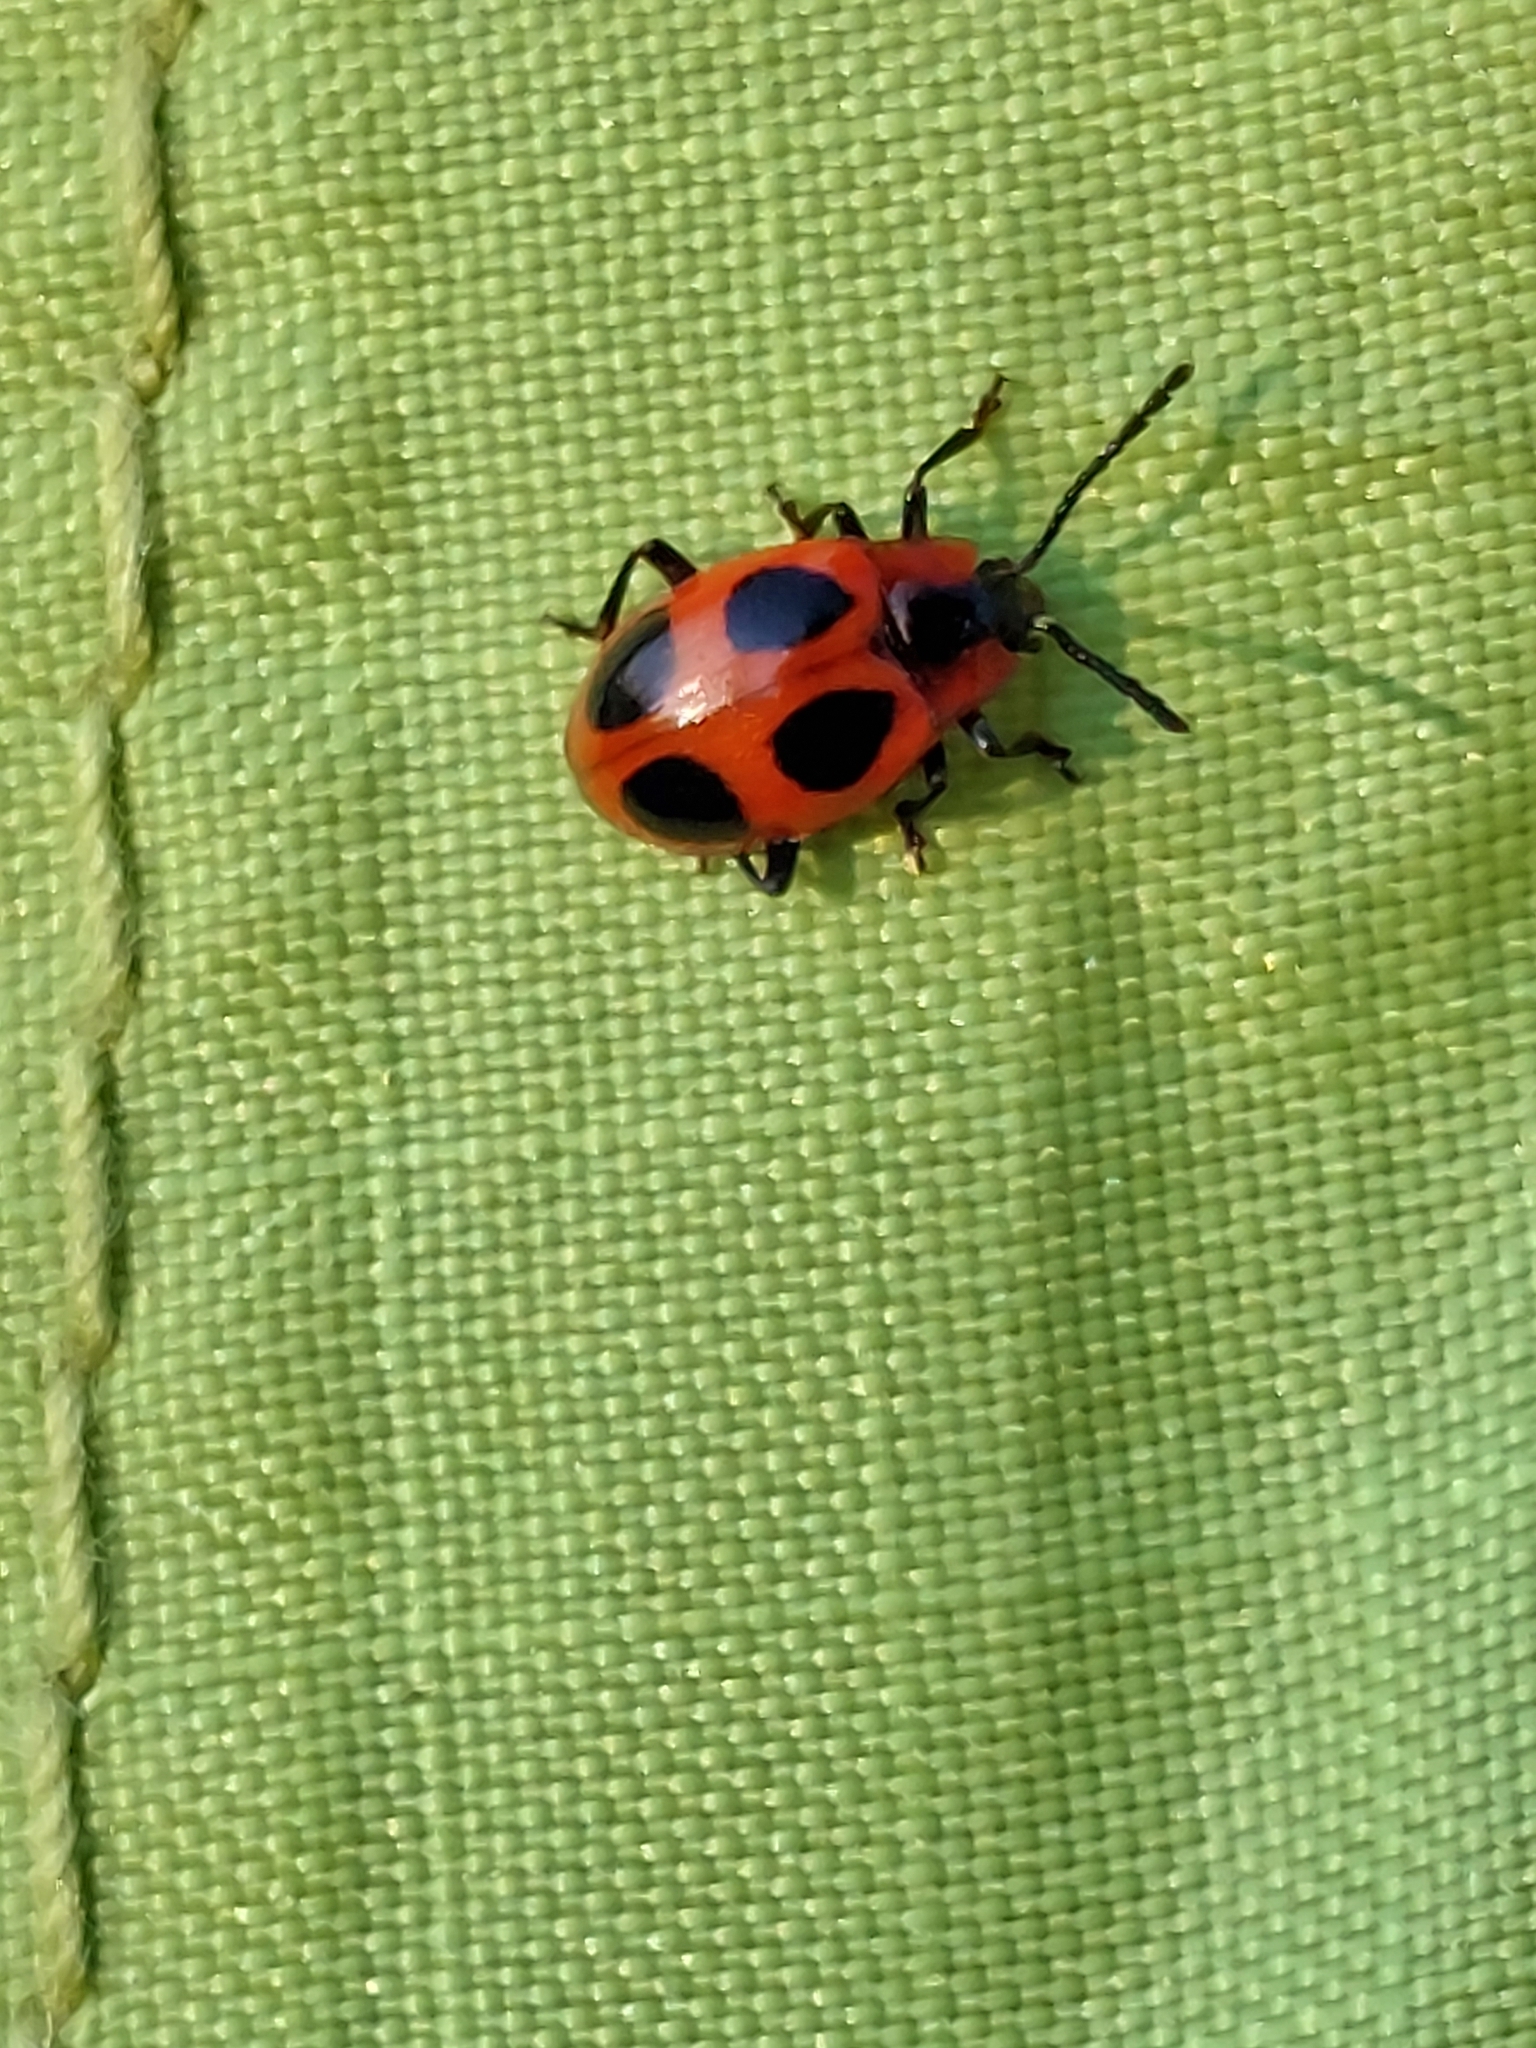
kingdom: Animalia
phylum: Arthropoda
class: Insecta
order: Coleoptera
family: Endomychidae
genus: Endomychus
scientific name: Endomychus coccineus
